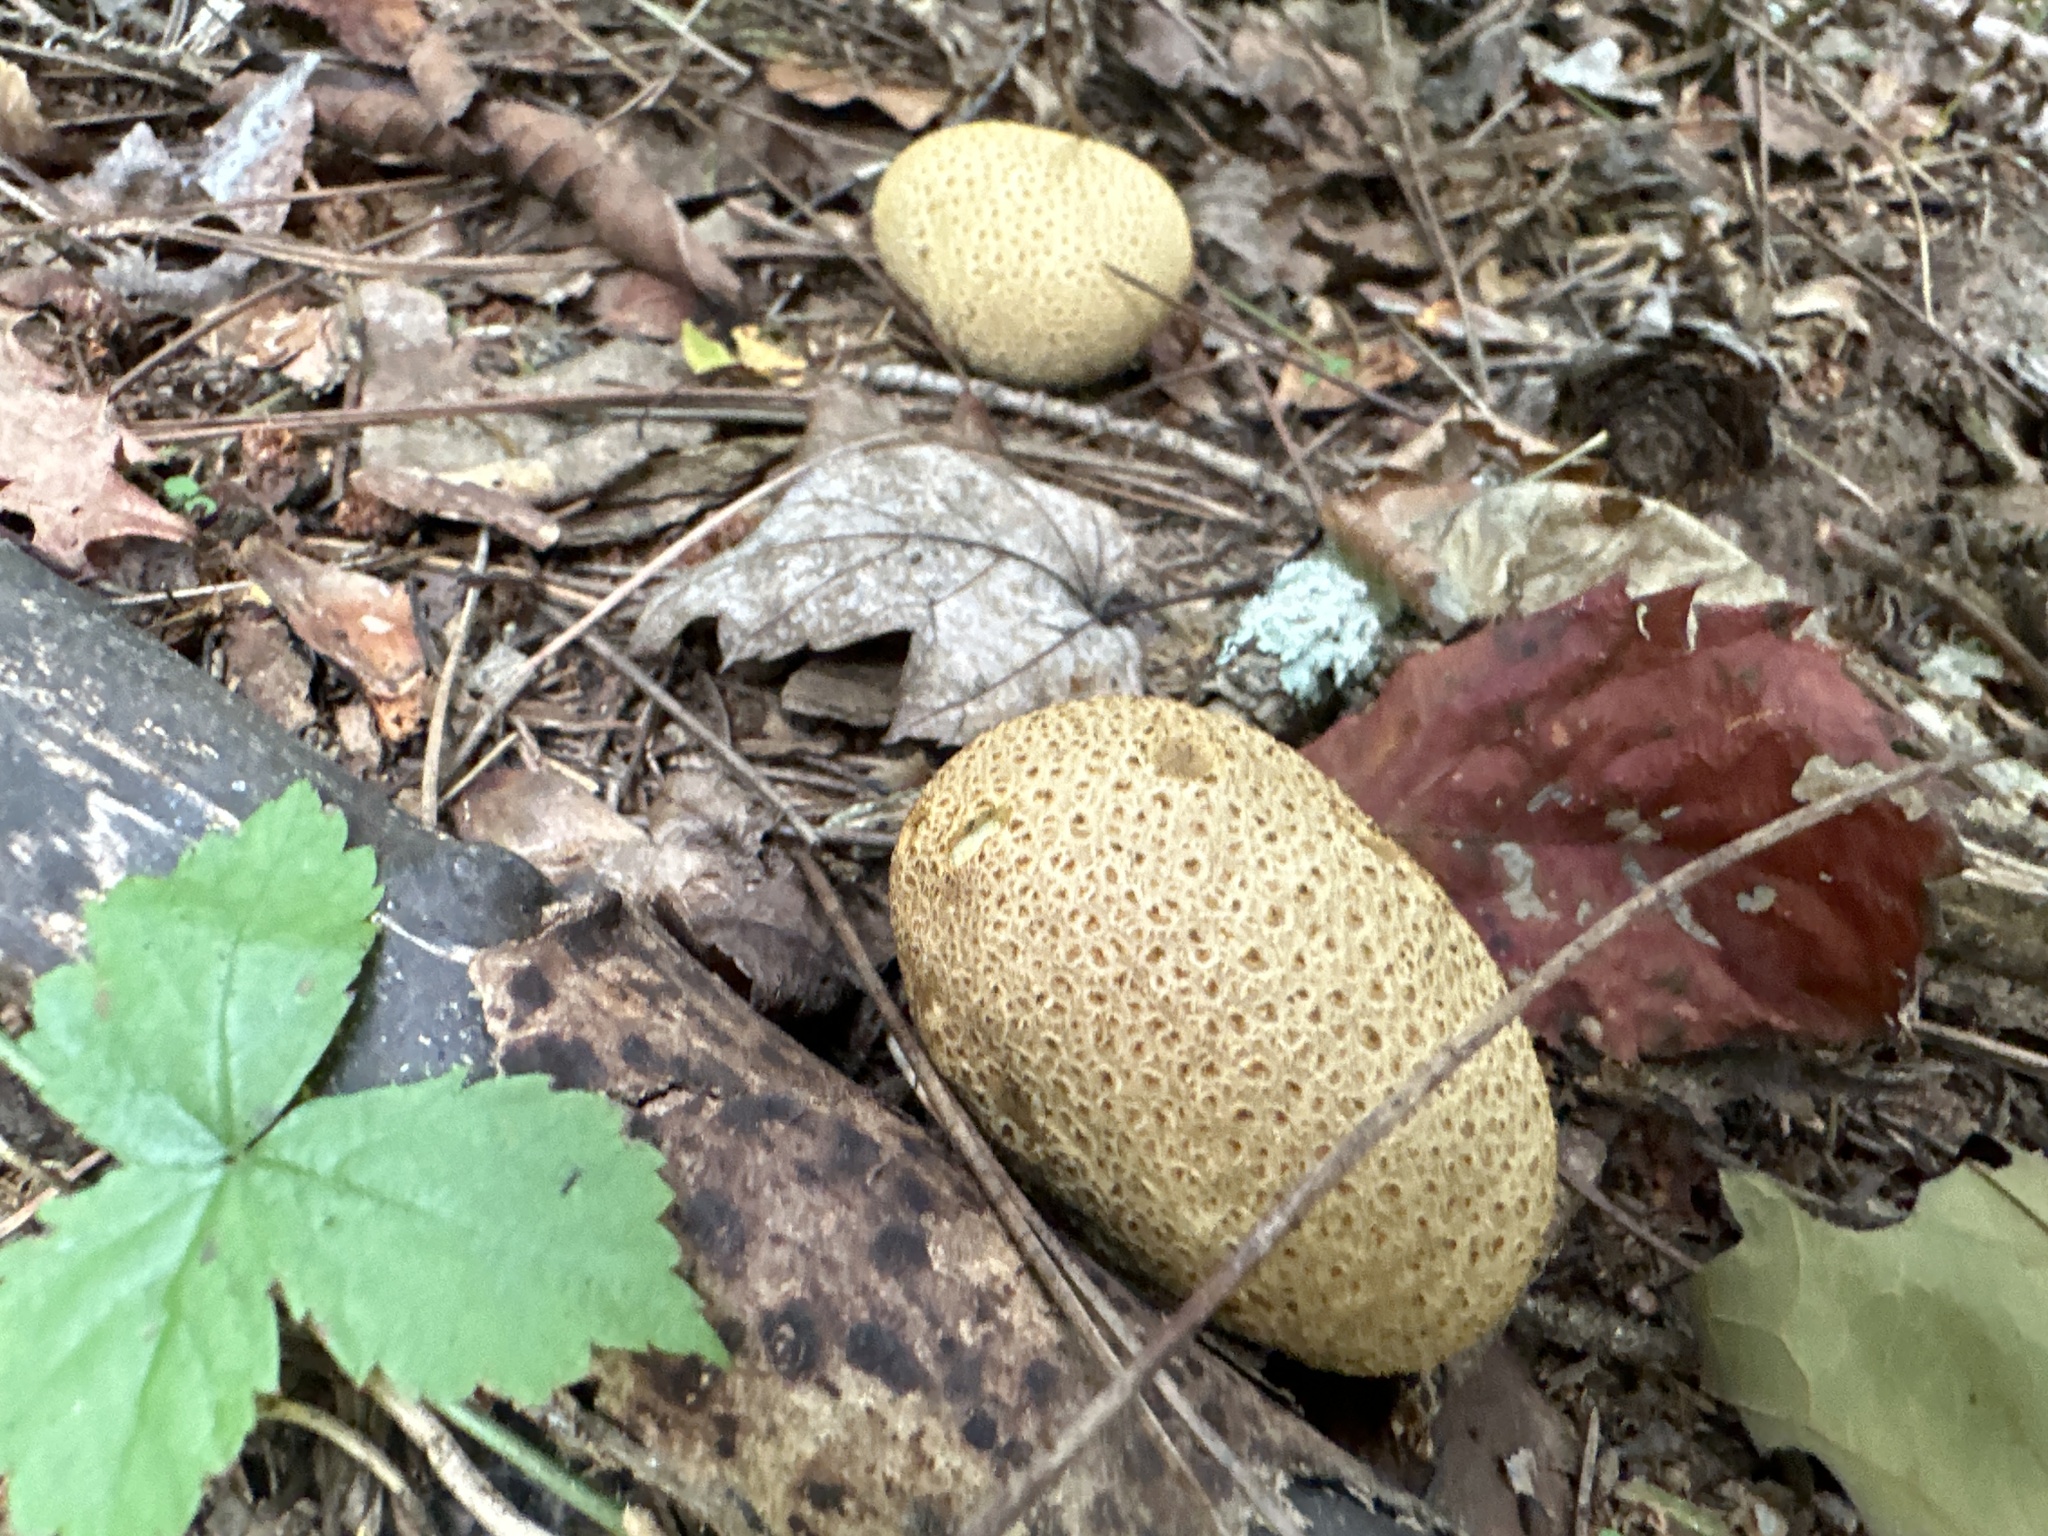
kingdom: Fungi
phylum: Basidiomycota
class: Agaricomycetes
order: Boletales
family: Sclerodermataceae
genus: Scleroderma
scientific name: Scleroderma citrinum
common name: Common earthball
